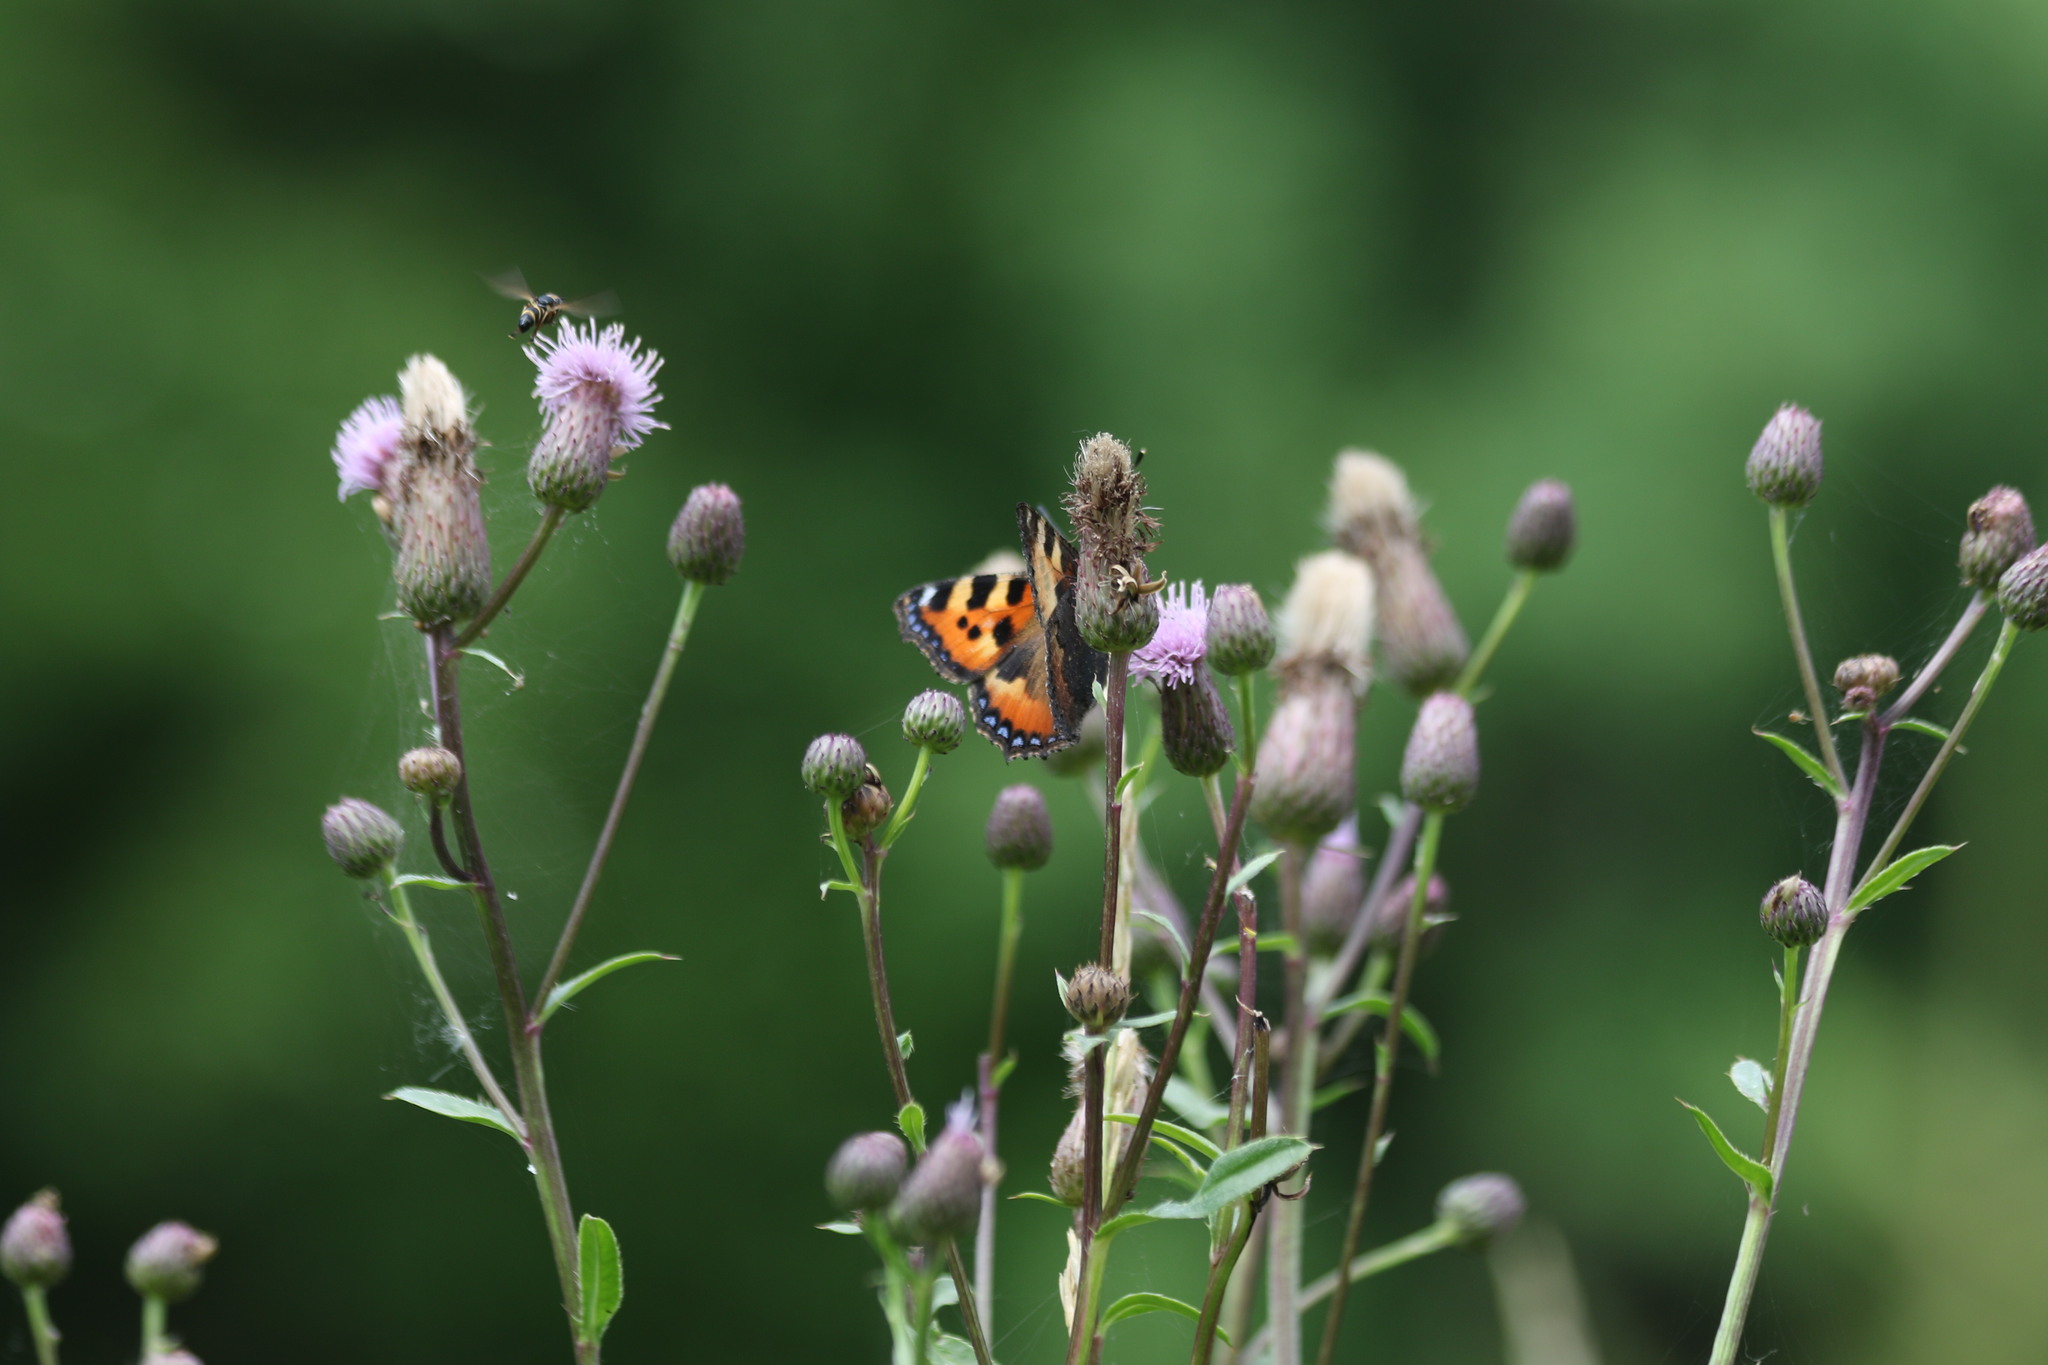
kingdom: Animalia
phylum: Arthropoda
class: Insecta
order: Lepidoptera
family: Nymphalidae
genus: Aglais
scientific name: Aglais urticae
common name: Small tortoiseshell
